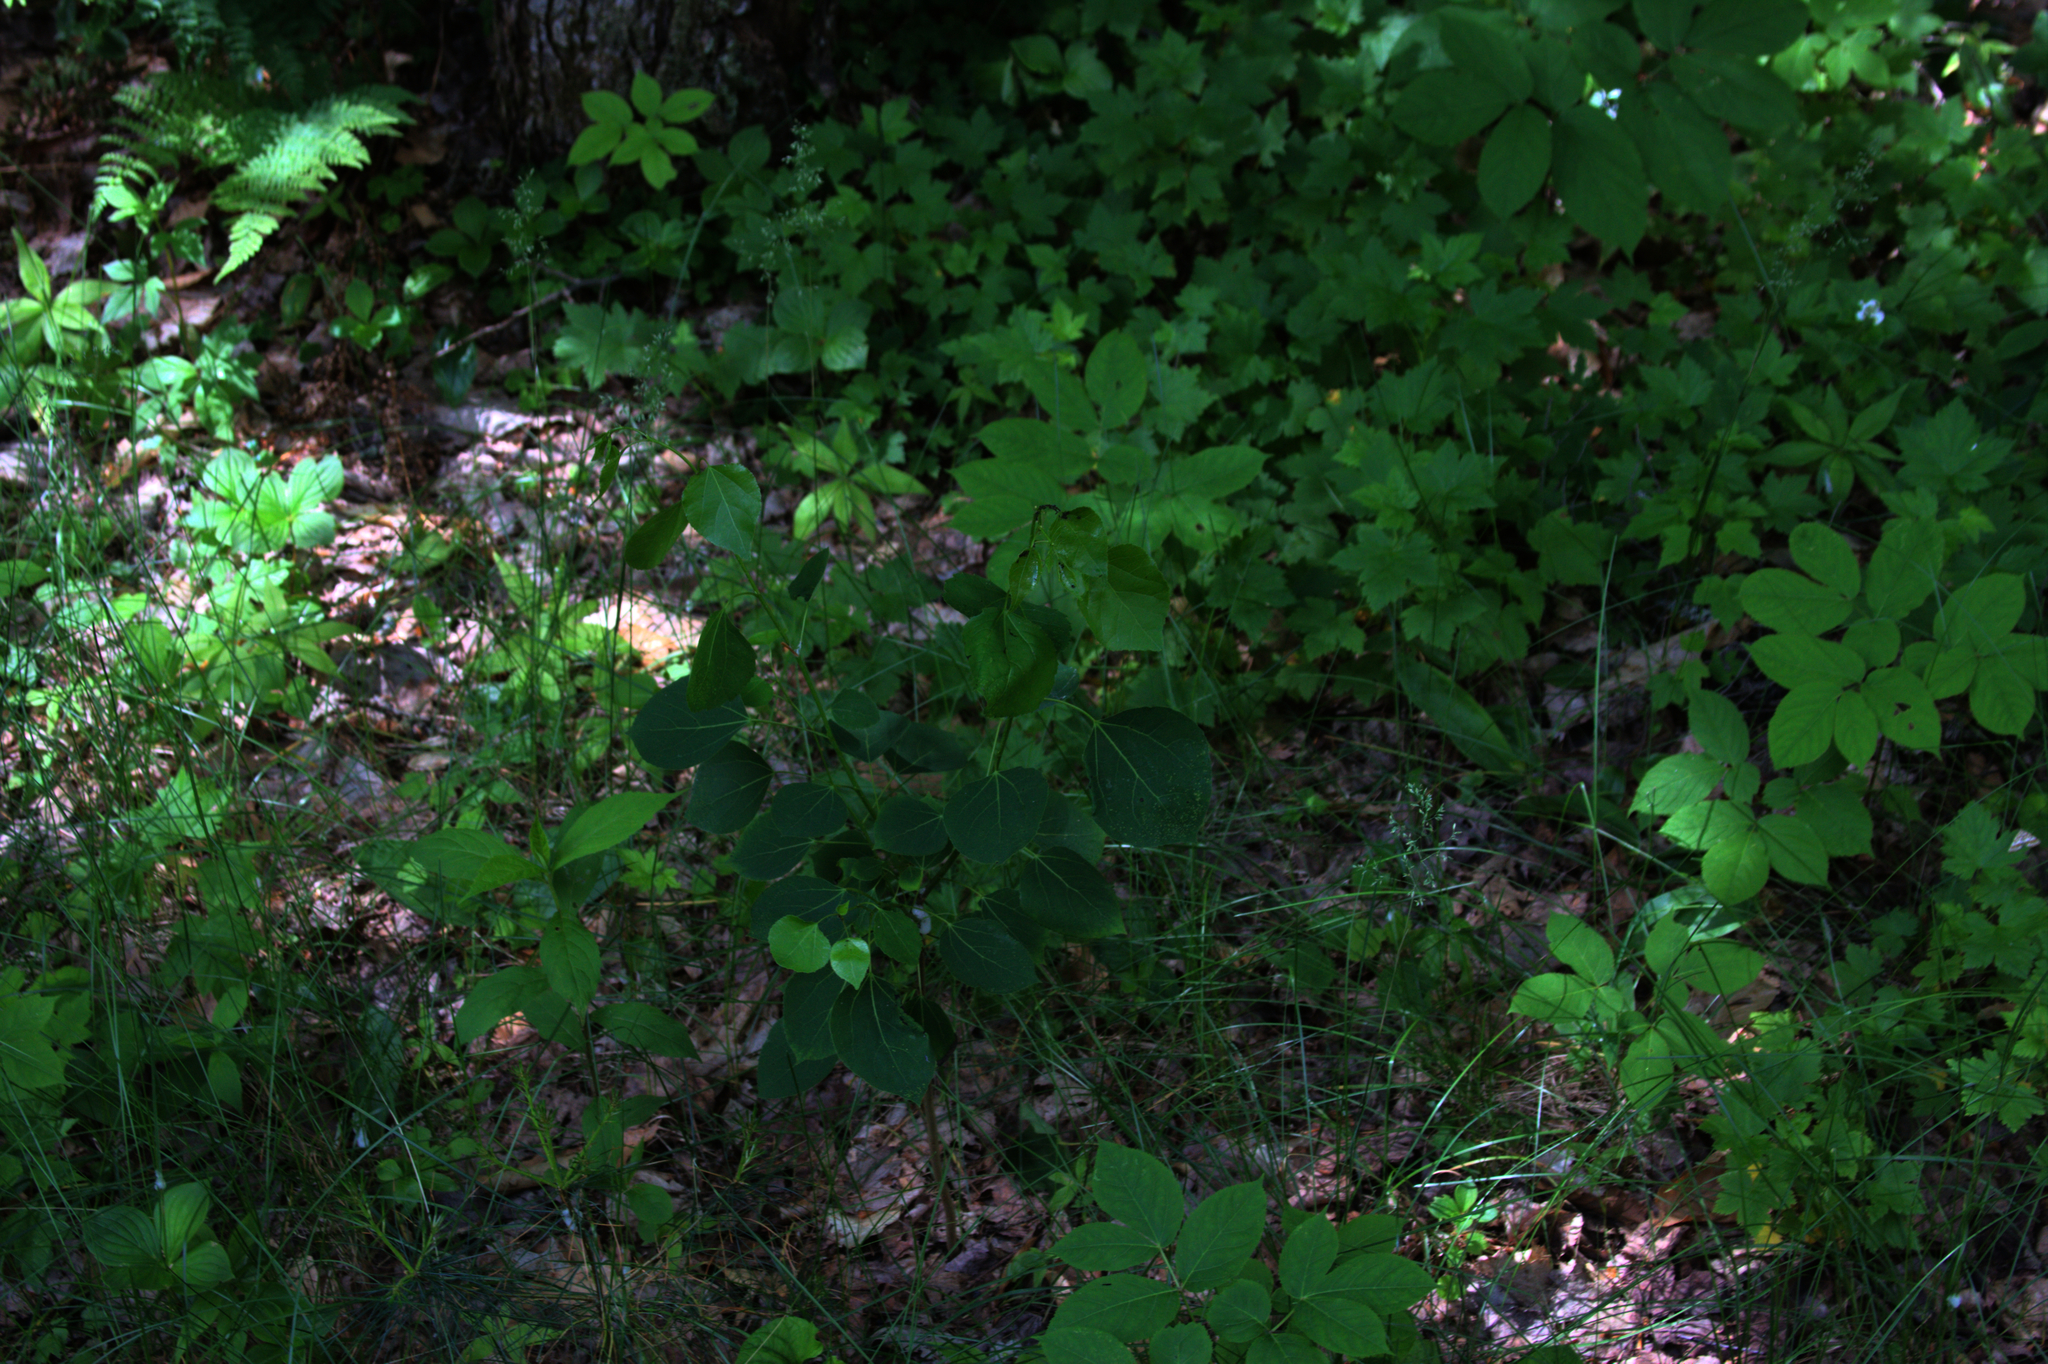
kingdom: Plantae
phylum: Tracheophyta
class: Magnoliopsida
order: Malpighiales
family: Salicaceae
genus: Populus
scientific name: Populus tremuloides
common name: Quaking aspen
